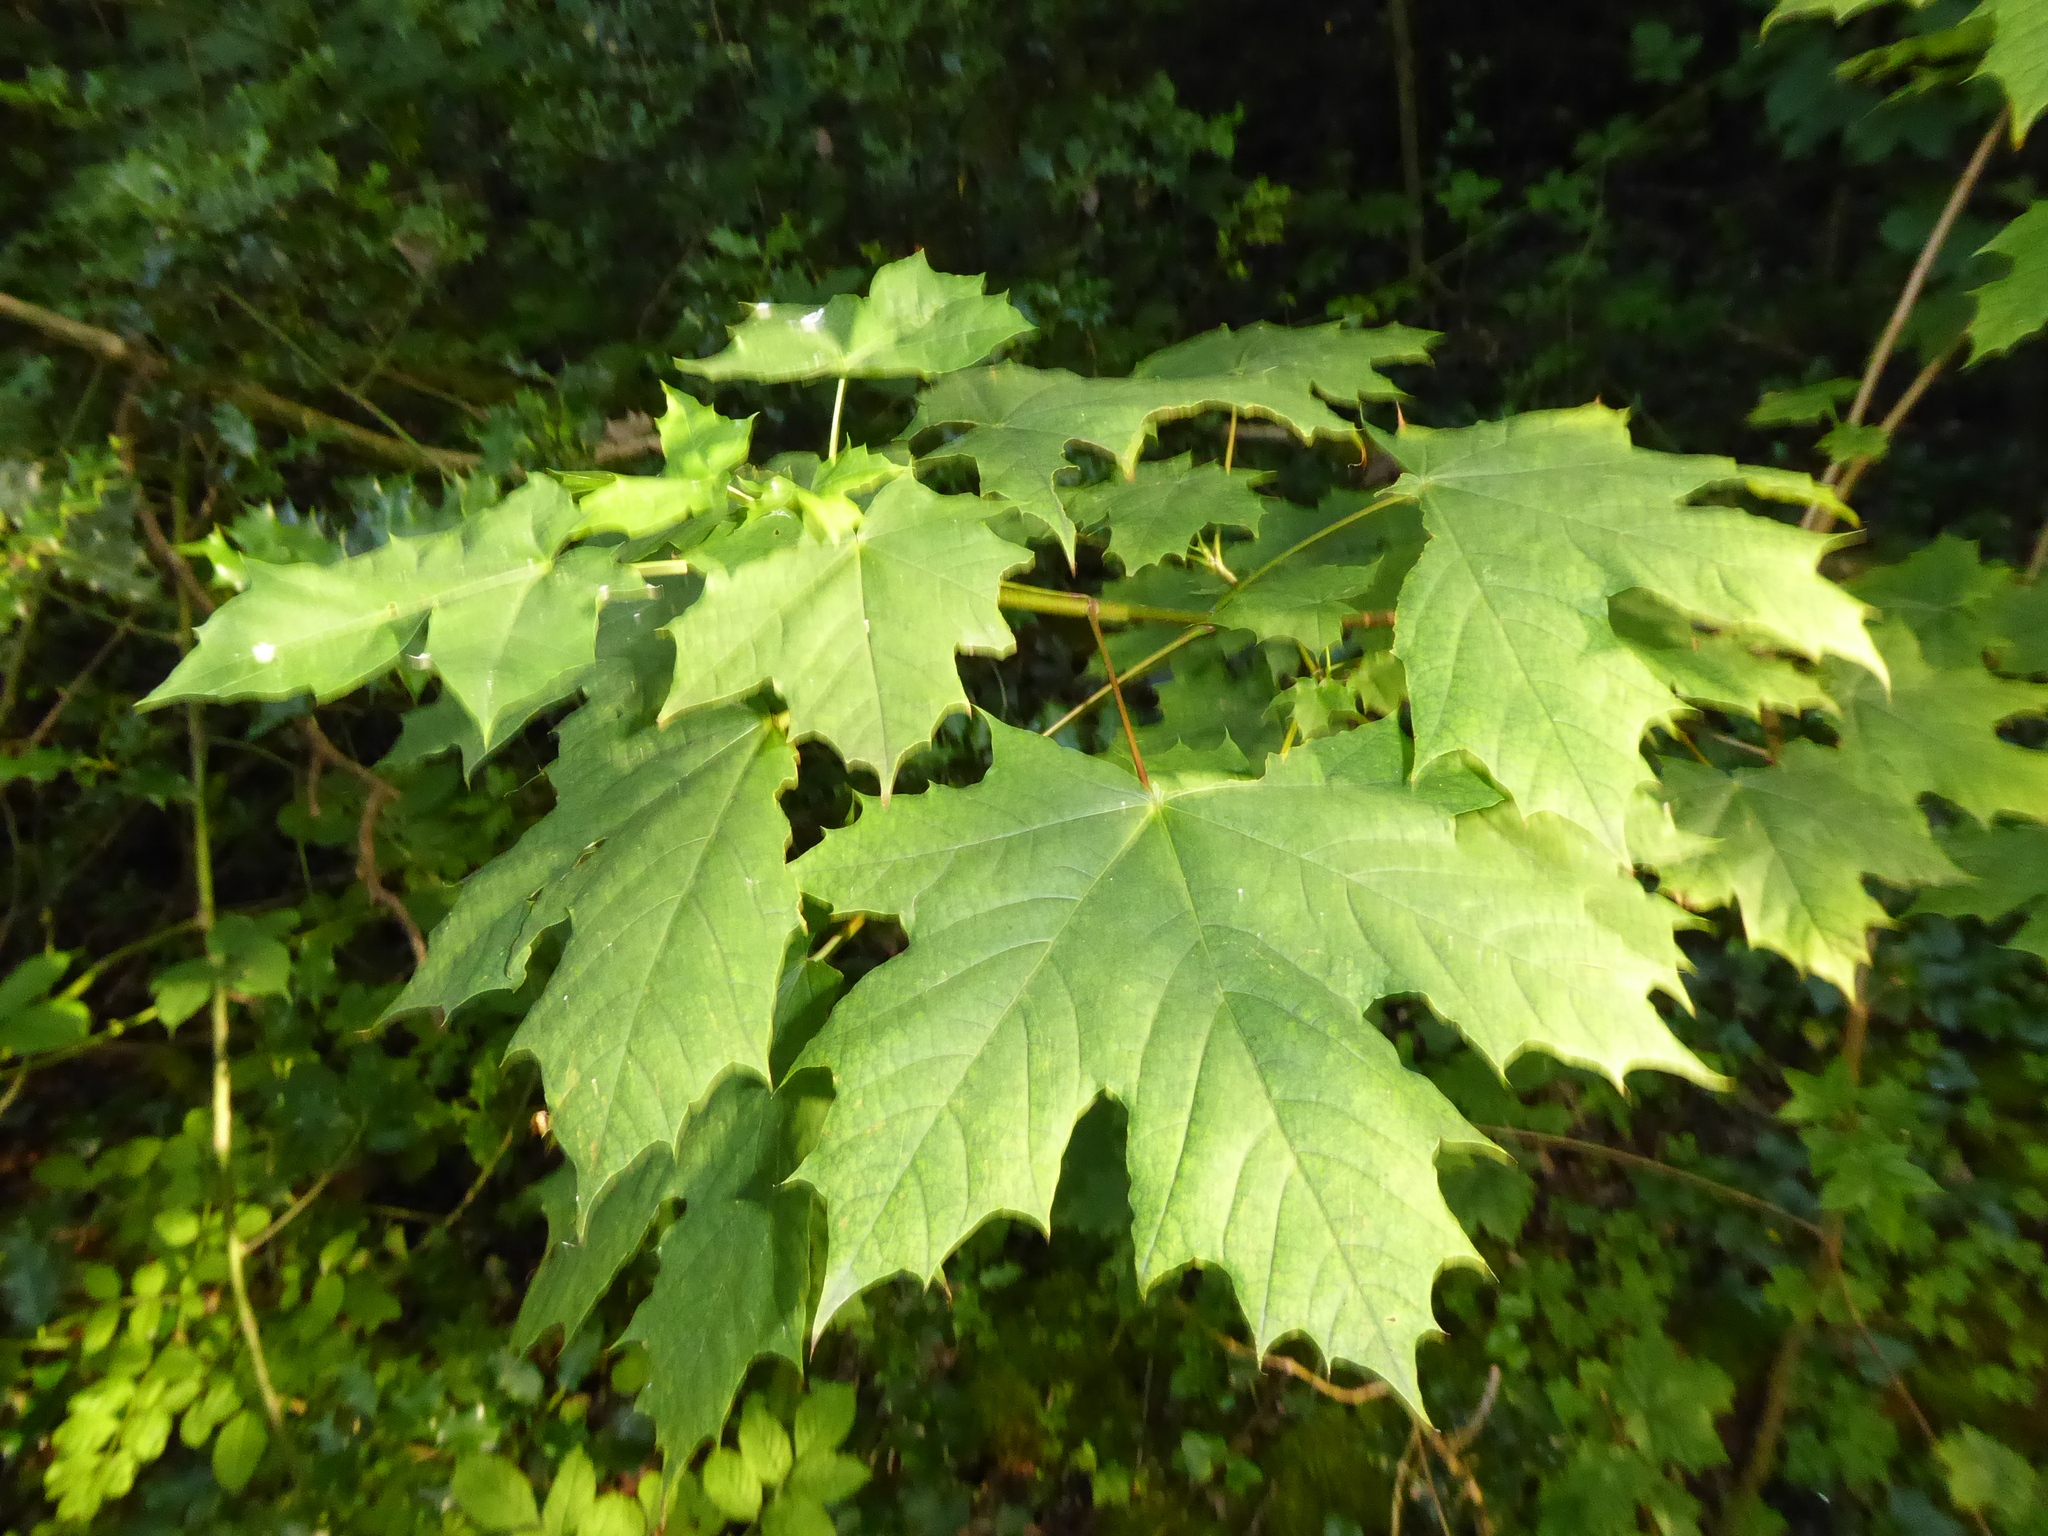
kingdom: Plantae
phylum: Tracheophyta
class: Magnoliopsida
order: Sapindales
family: Sapindaceae
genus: Acer
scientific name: Acer platanoides
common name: Norway maple
